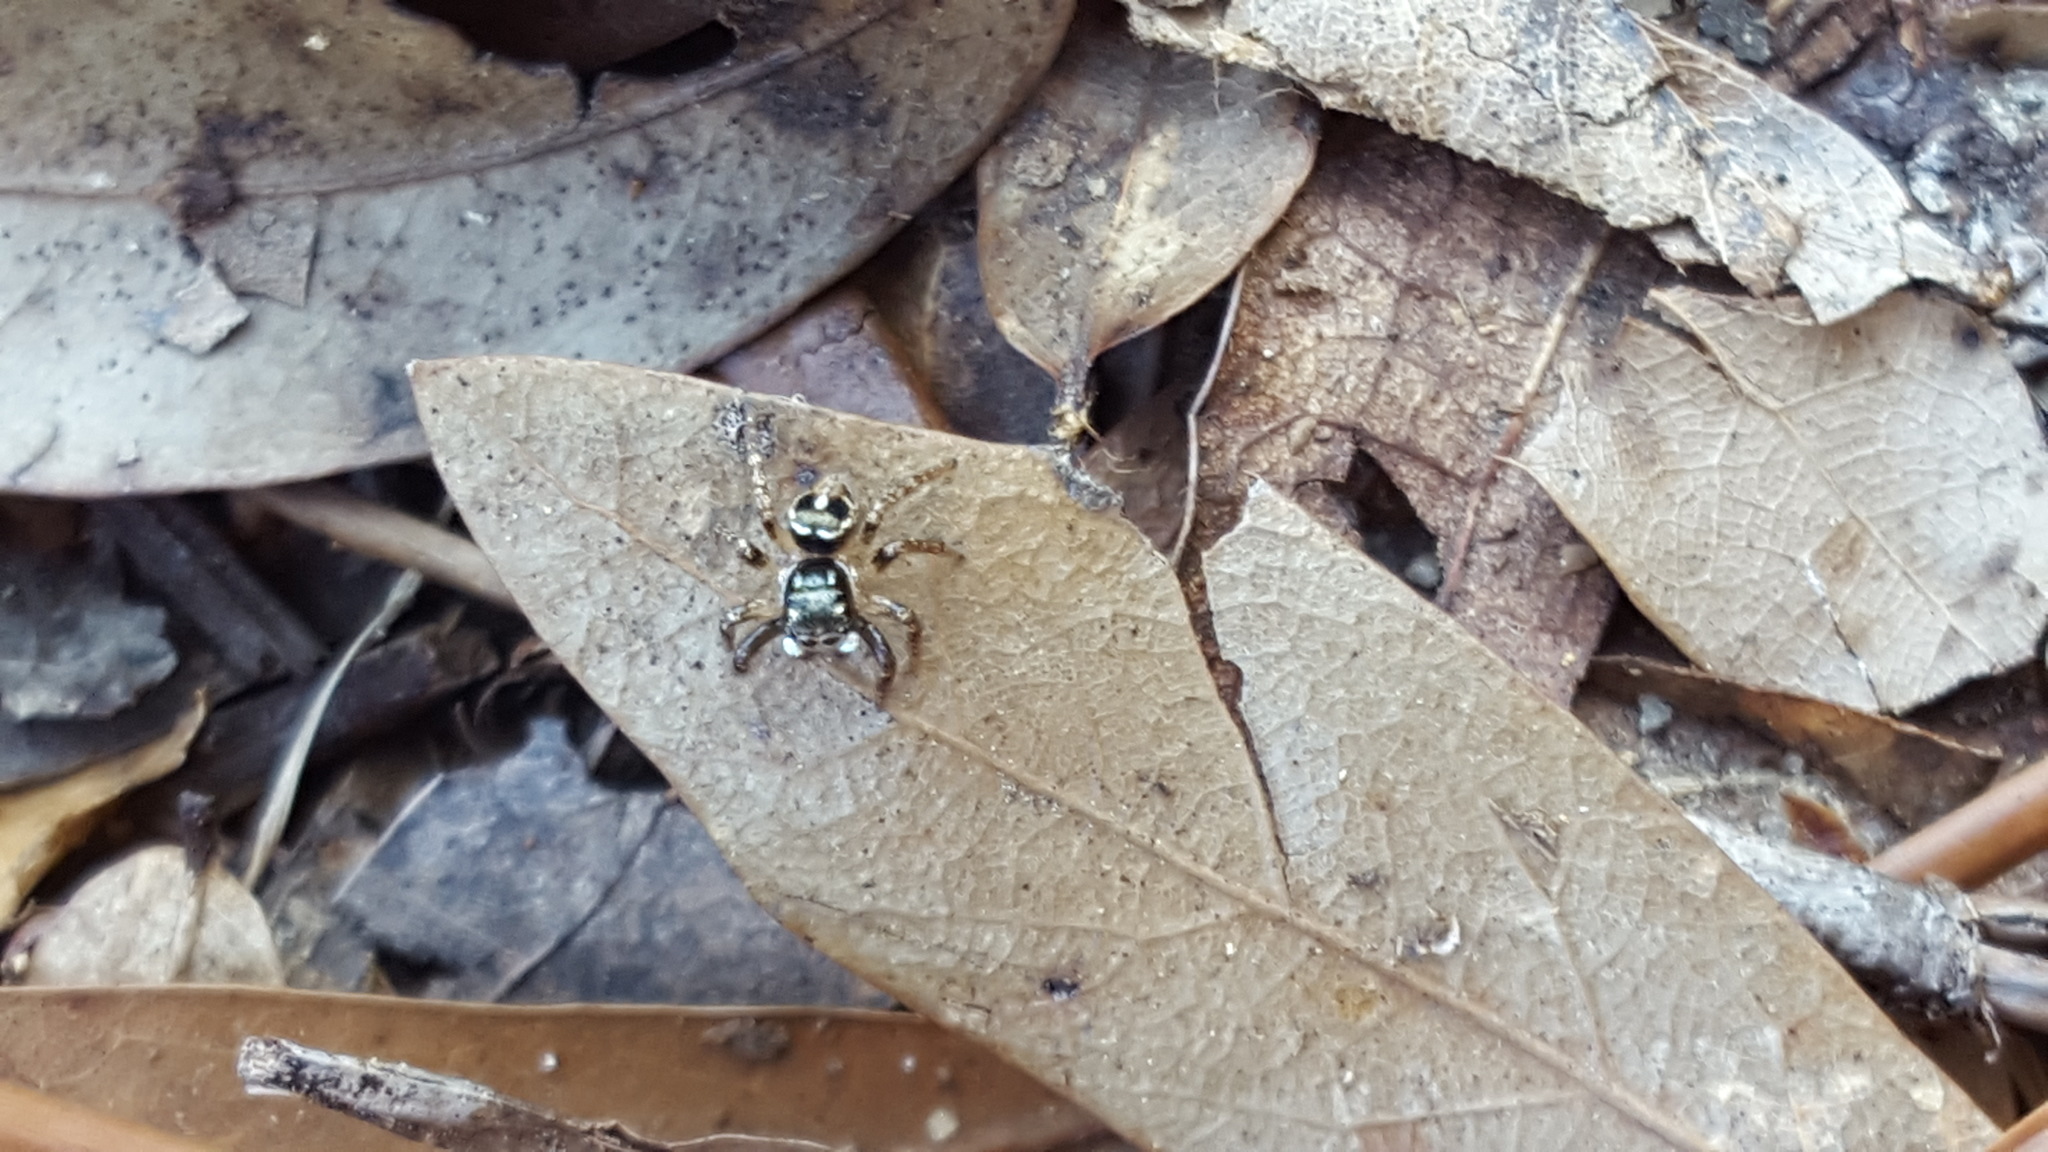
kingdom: Animalia
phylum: Arthropoda
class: Arachnida
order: Araneae
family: Salticidae
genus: Anasaitis
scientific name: Anasaitis canosa
